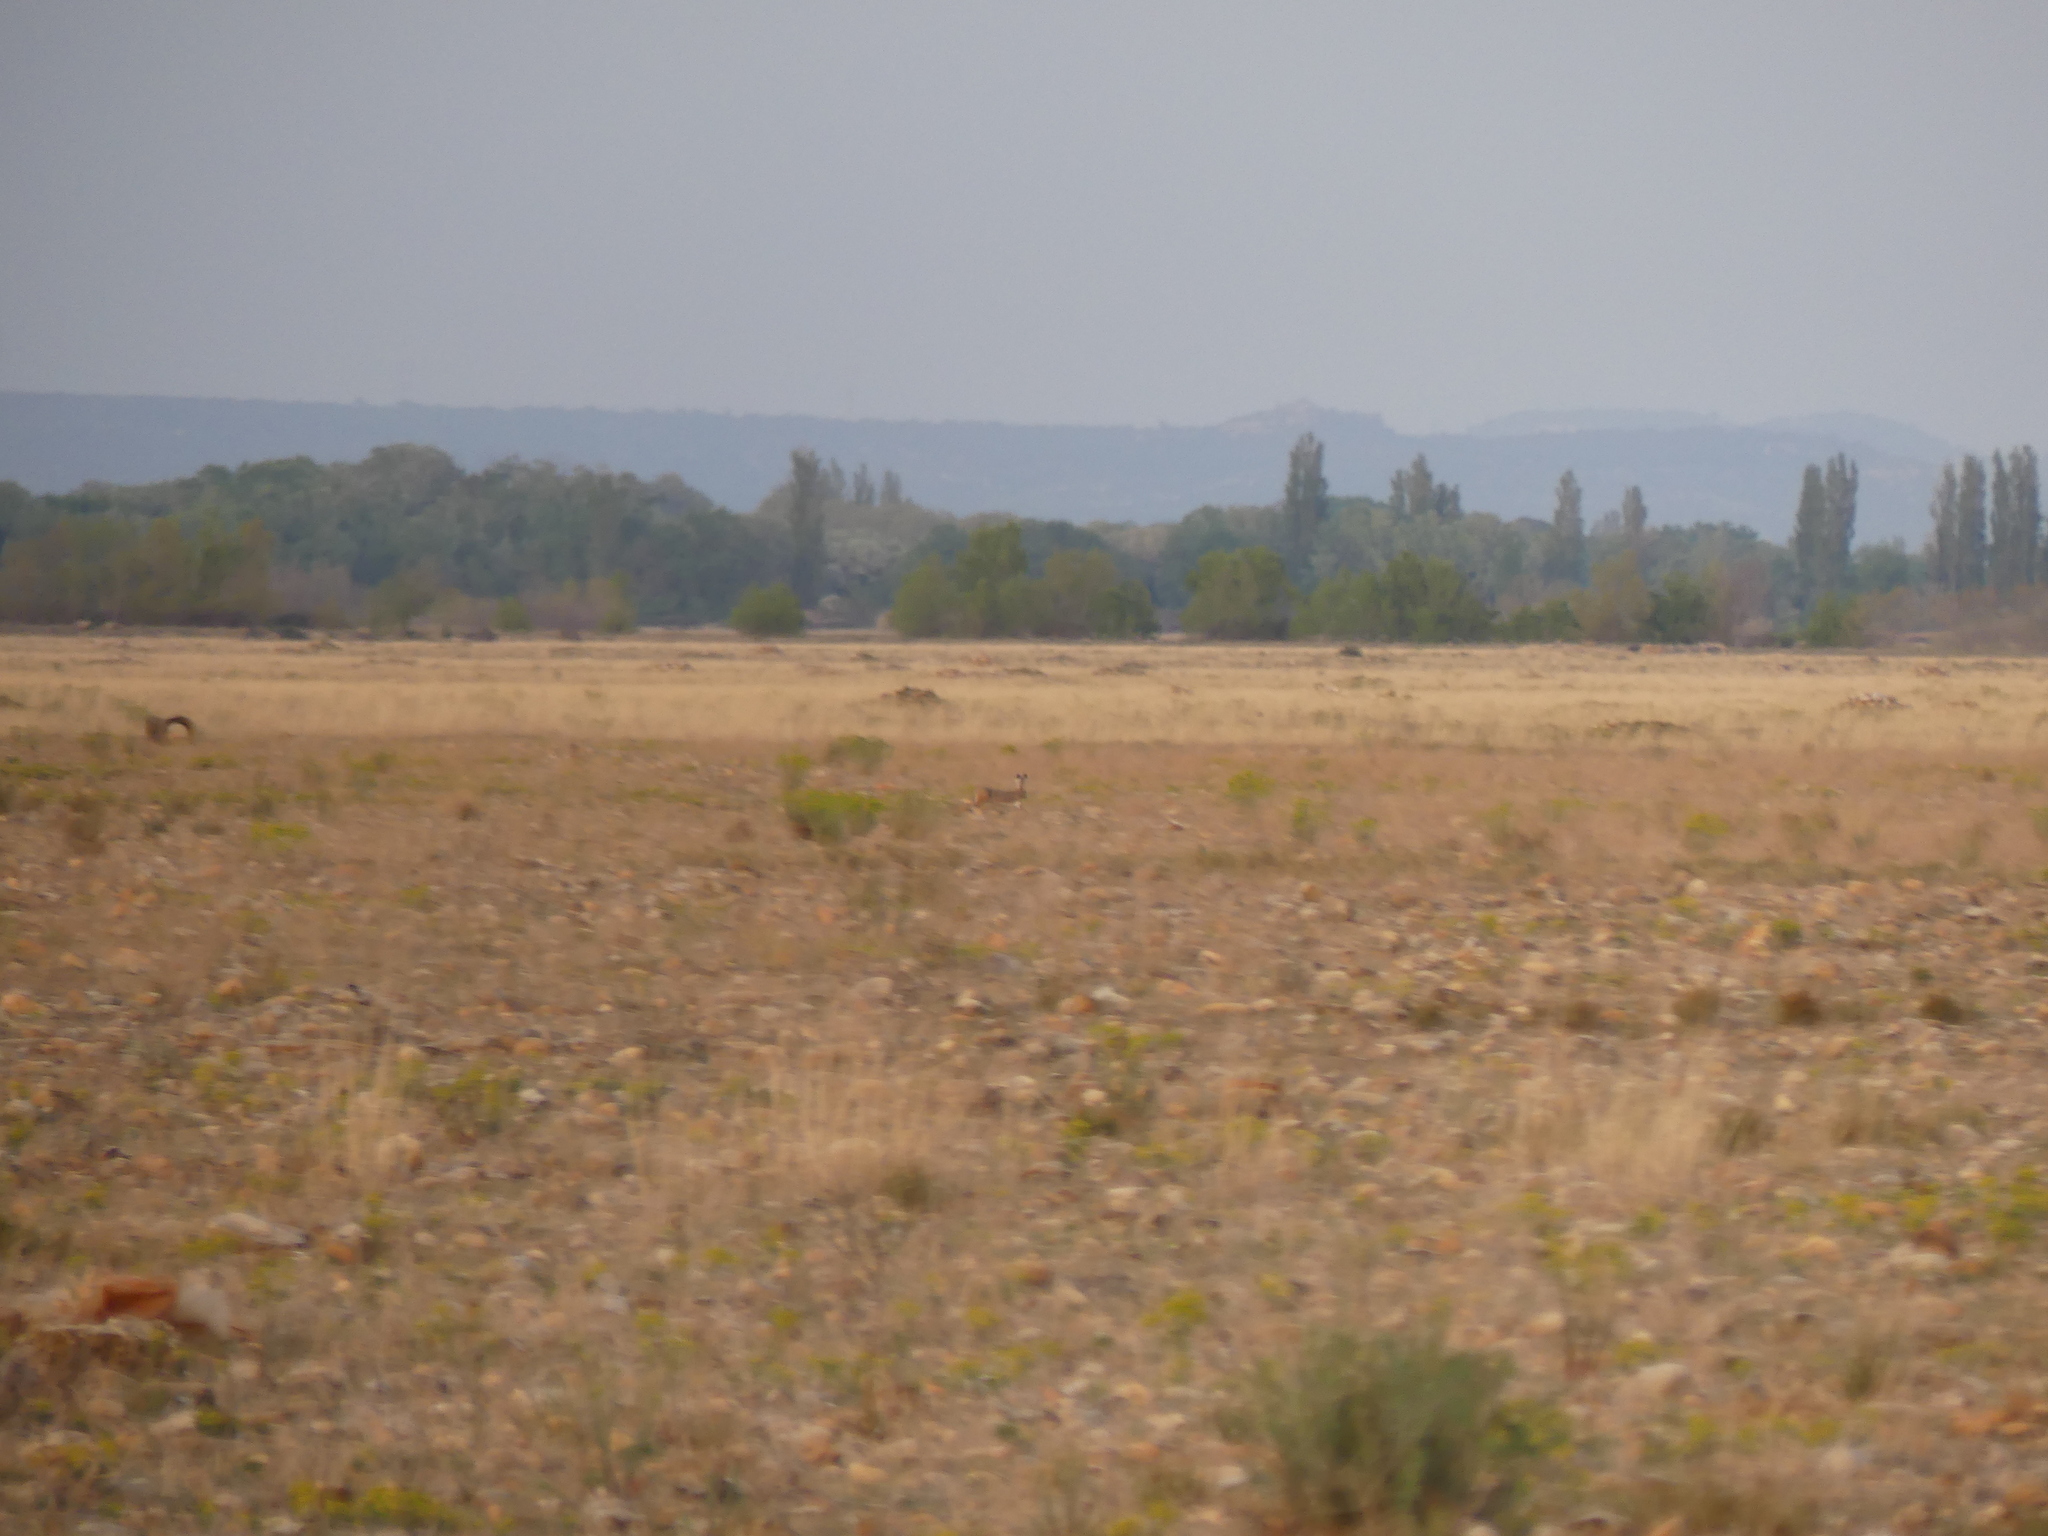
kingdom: Animalia
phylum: Chordata
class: Mammalia
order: Lagomorpha
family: Leporidae
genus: Lepus
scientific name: Lepus granatensis
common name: Granada hare
